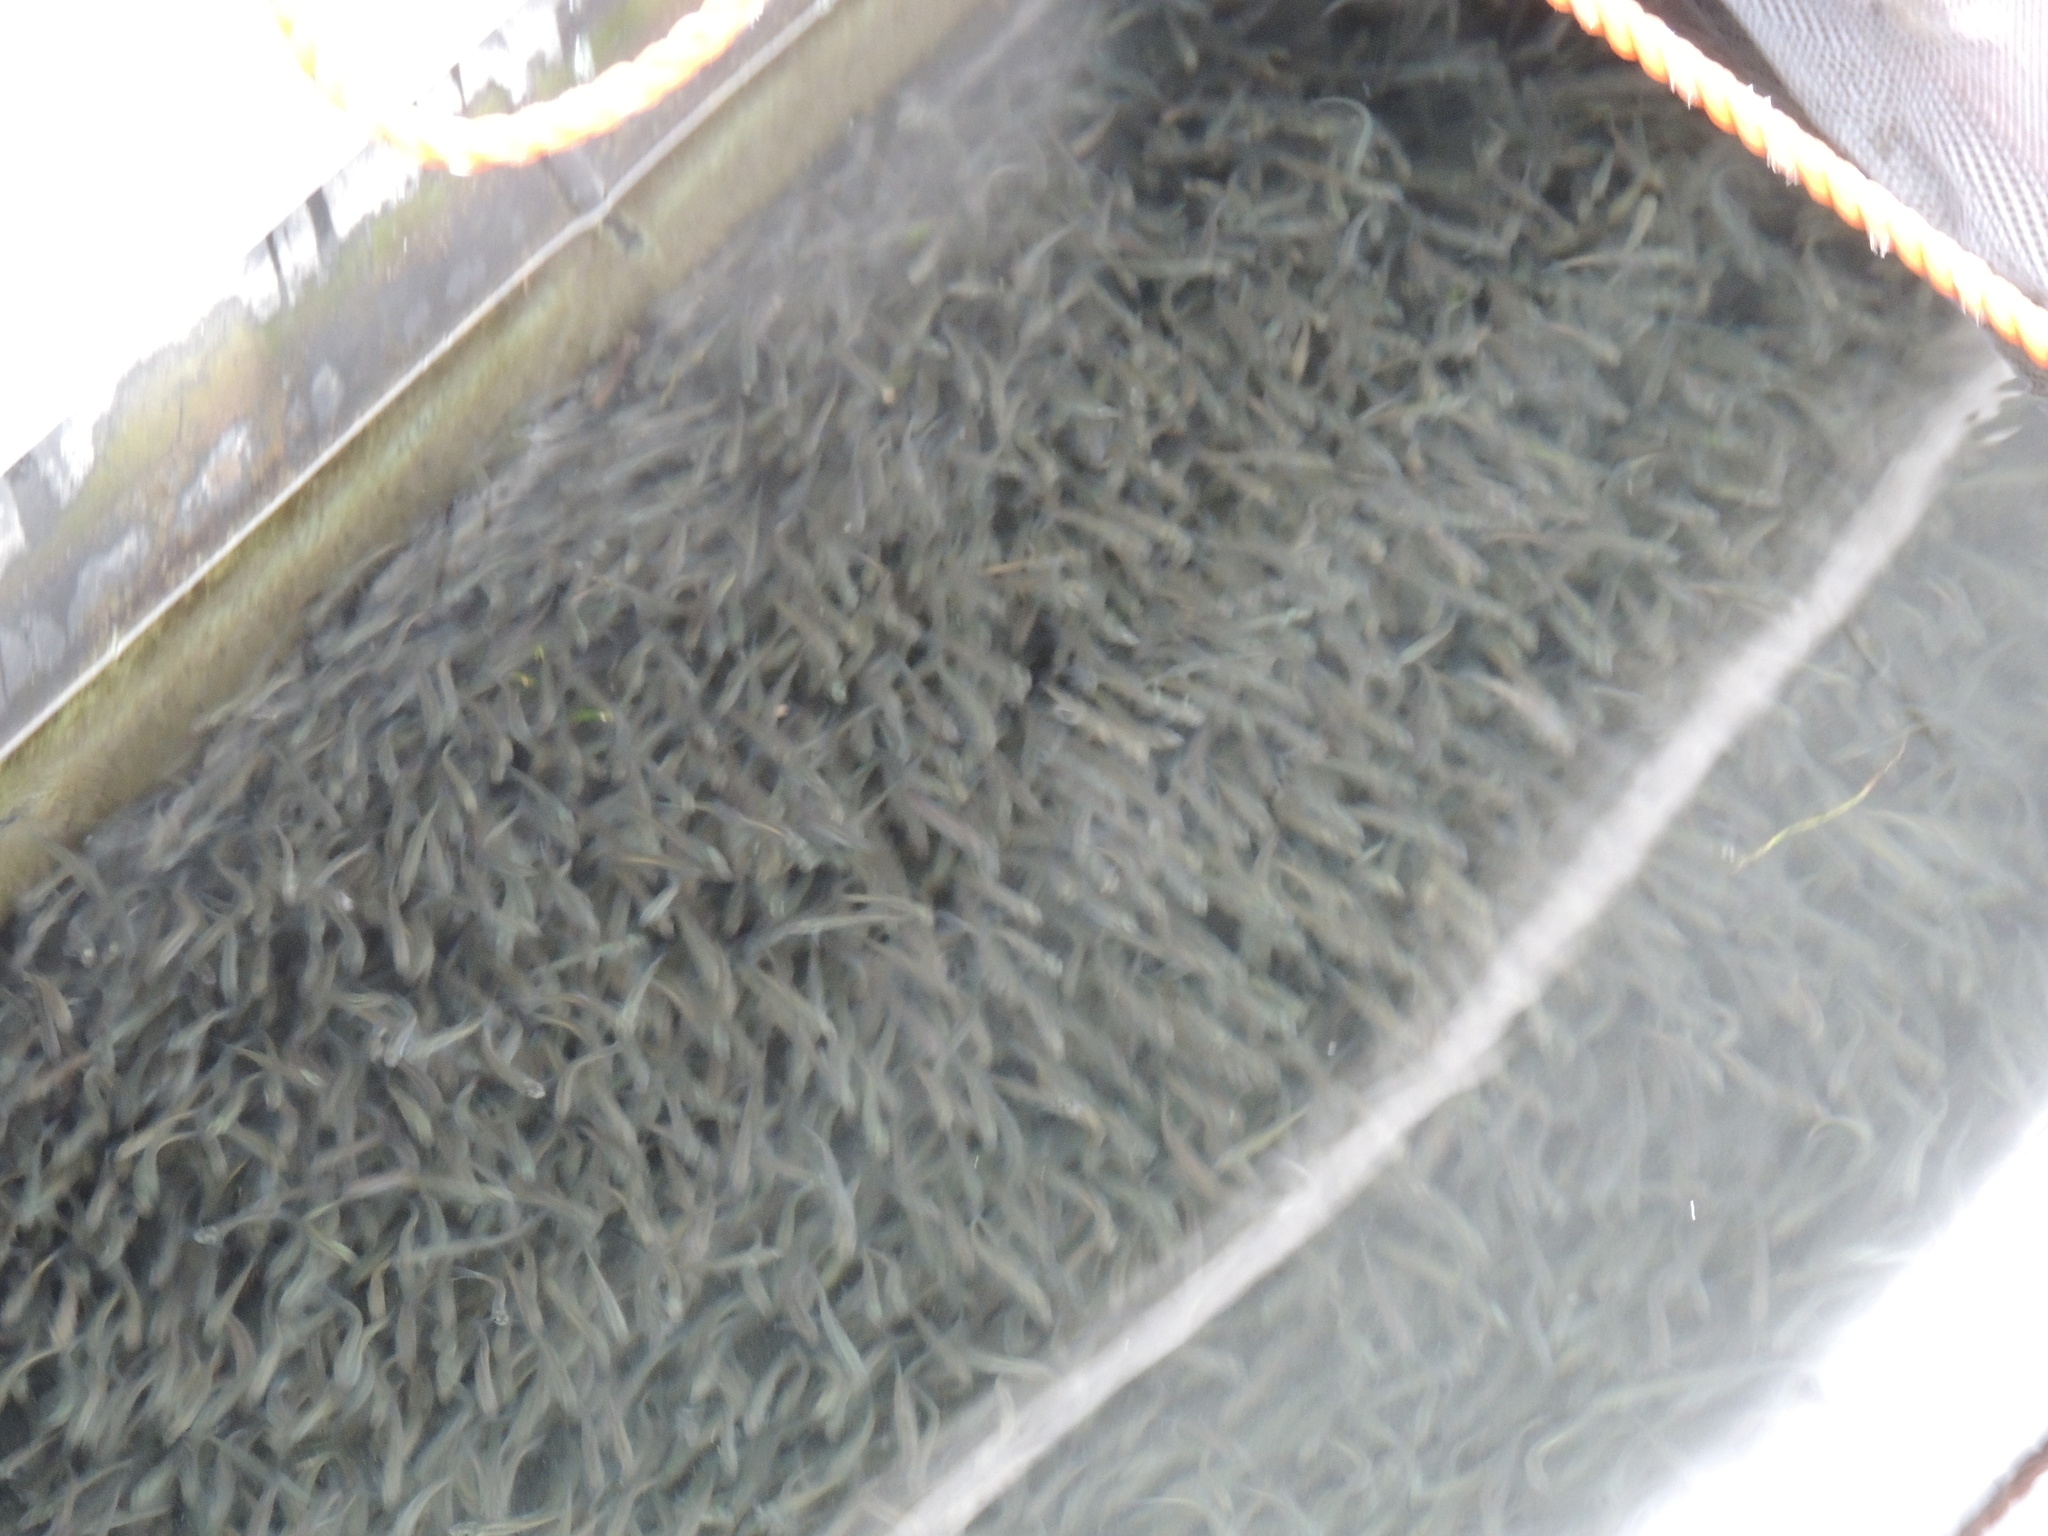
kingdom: Animalia
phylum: Chordata
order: Cypriniformes
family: Cyprinidae
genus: Notropis
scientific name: Notropis atherinoides
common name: Emerald shiner
